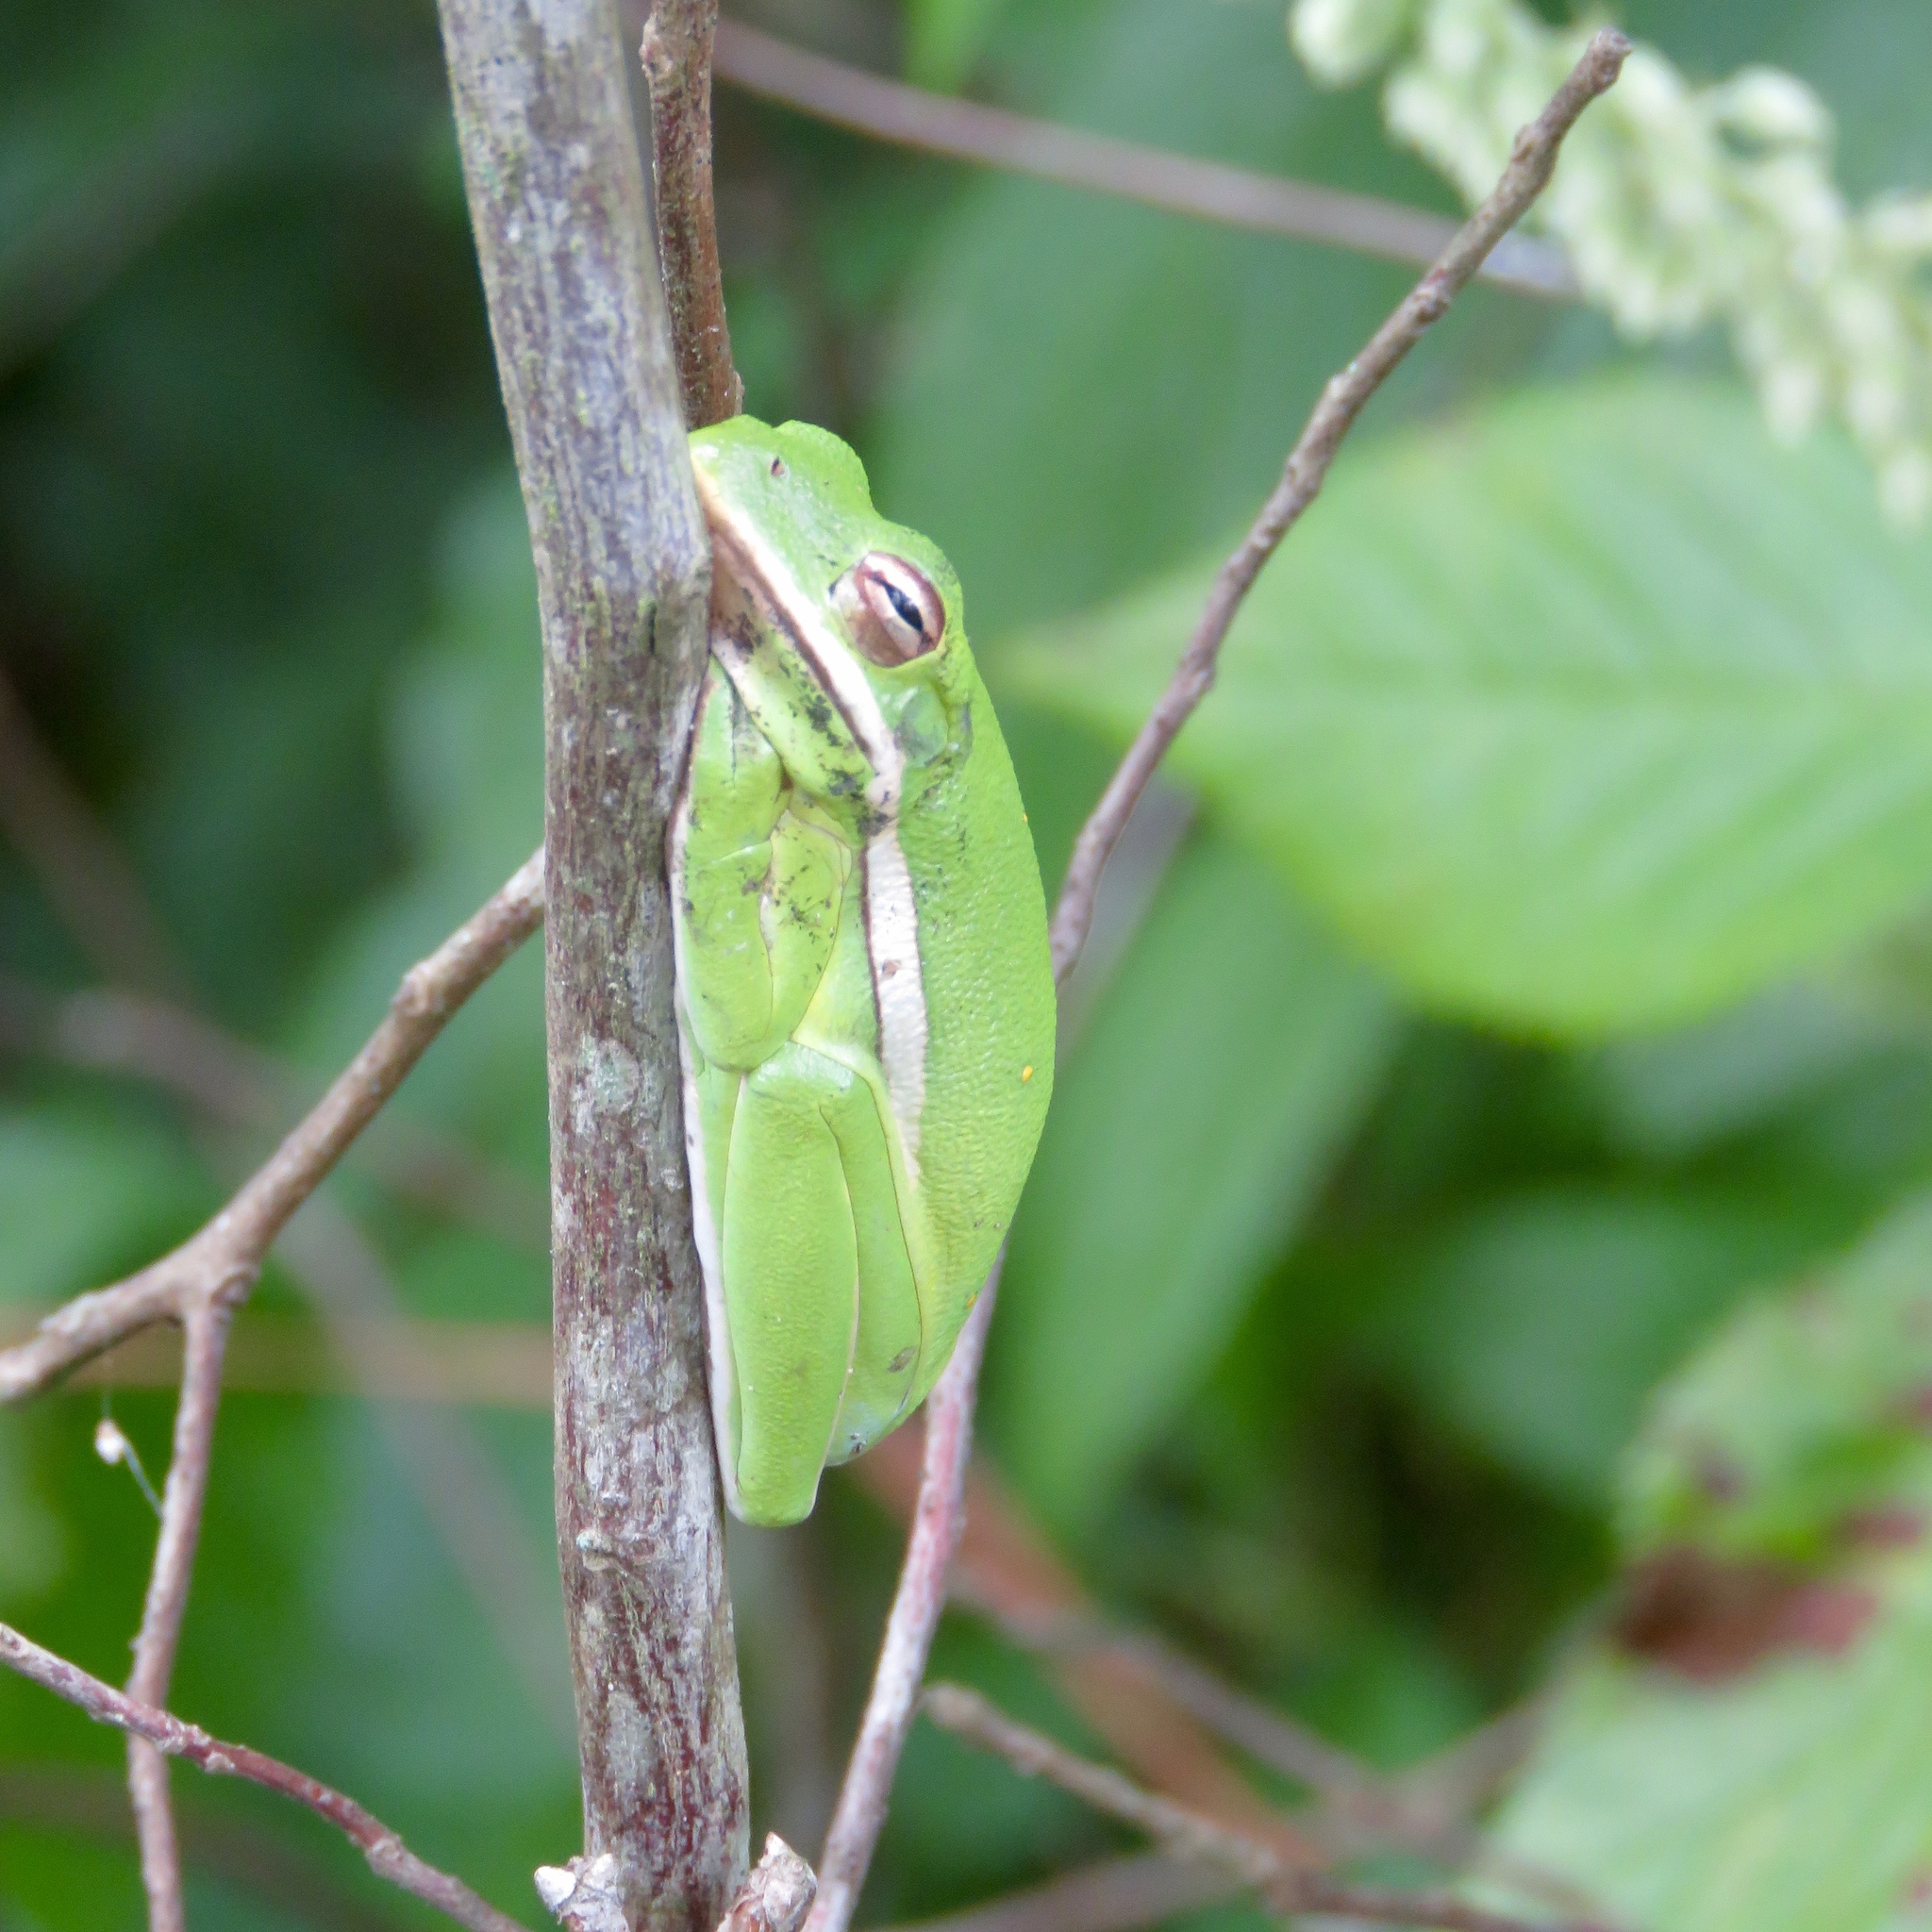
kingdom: Animalia
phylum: Chordata
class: Amphibia
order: Anura
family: Hylidae
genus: Dryophytes
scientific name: Dryophytes cinereus
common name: Green treefrog
